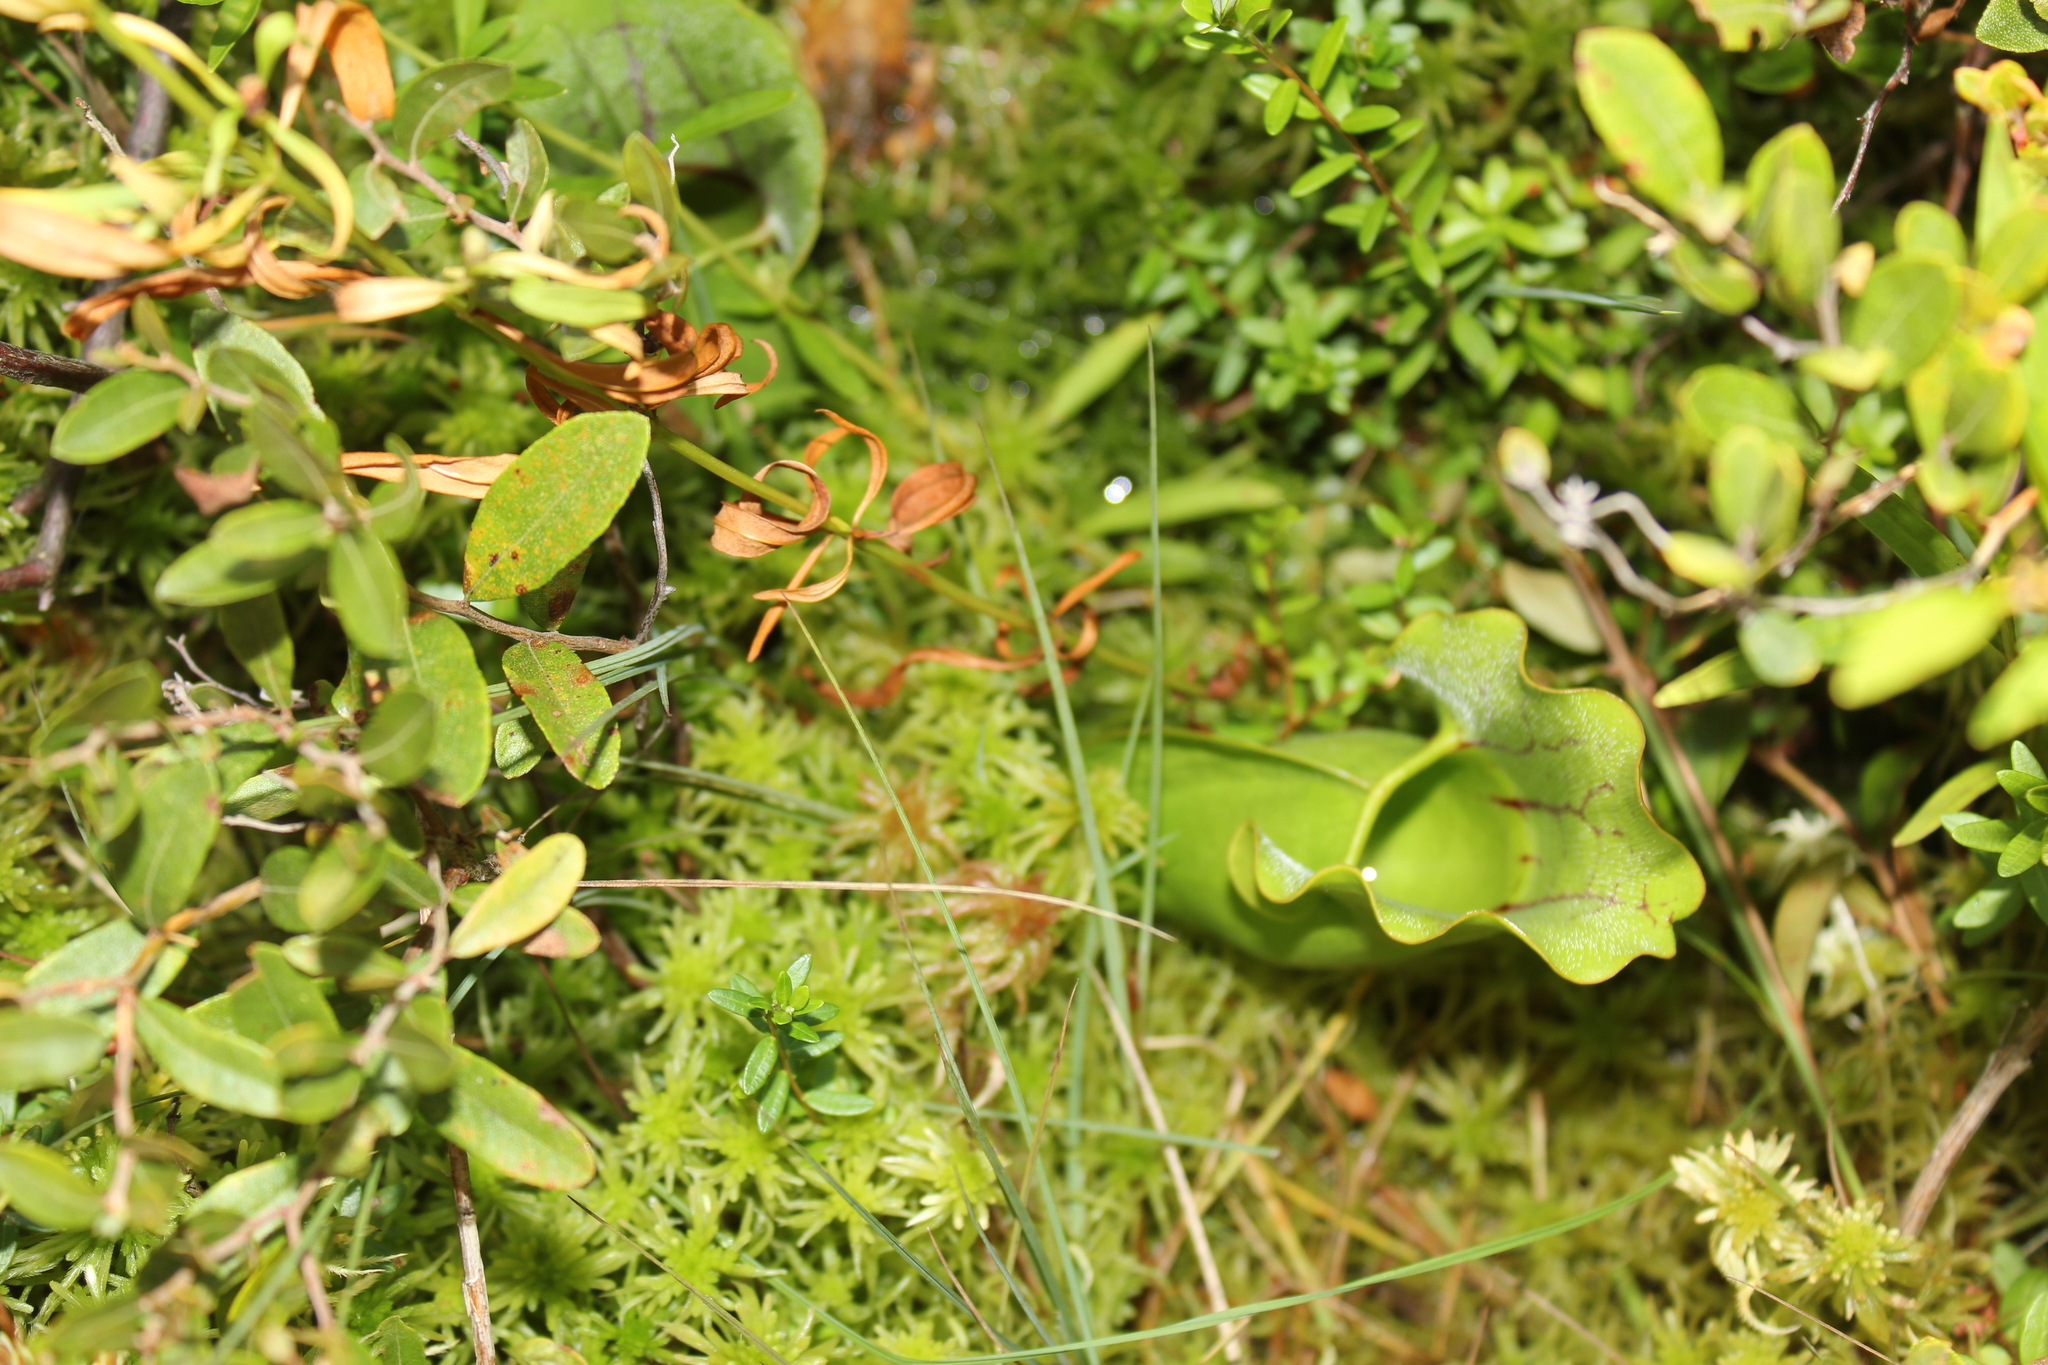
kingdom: Plantae
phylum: Tracheophyta
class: Magnoliopsida
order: Ericales
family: Sarraceniaceae
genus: Sarracenia
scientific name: Sarracenia purpurea
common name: Pitcherplant
